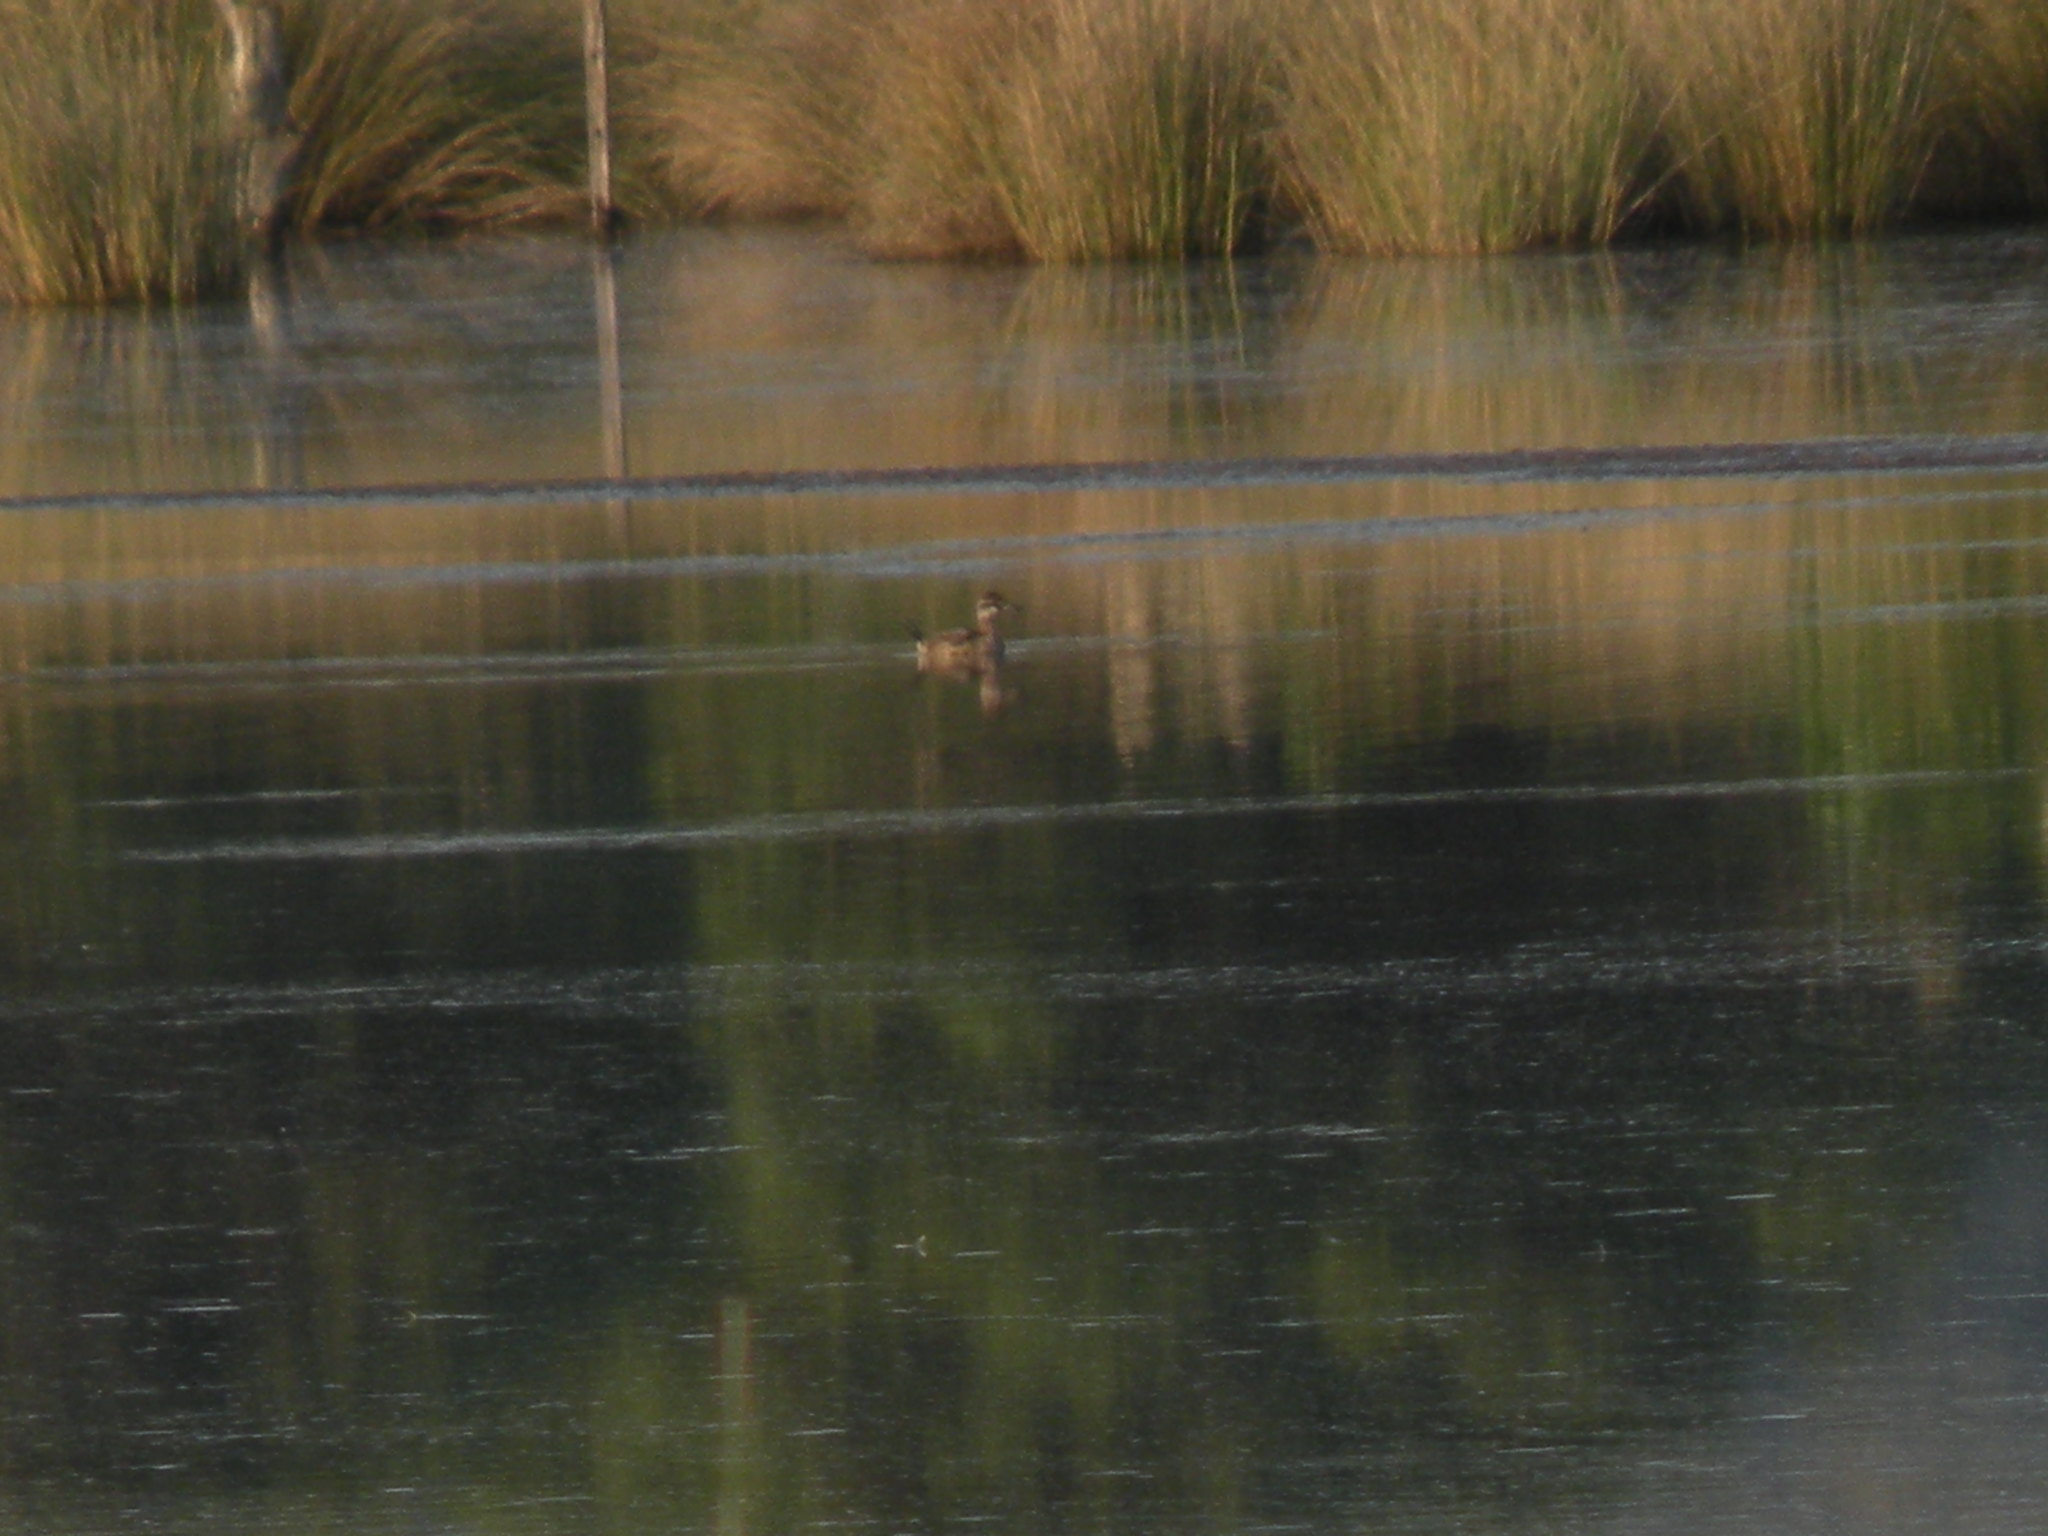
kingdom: Animalia
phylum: Chordata
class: Aves
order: Anseriformes
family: Anatidae
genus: Oxyura
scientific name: Oxyura vittata
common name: Lake duck
